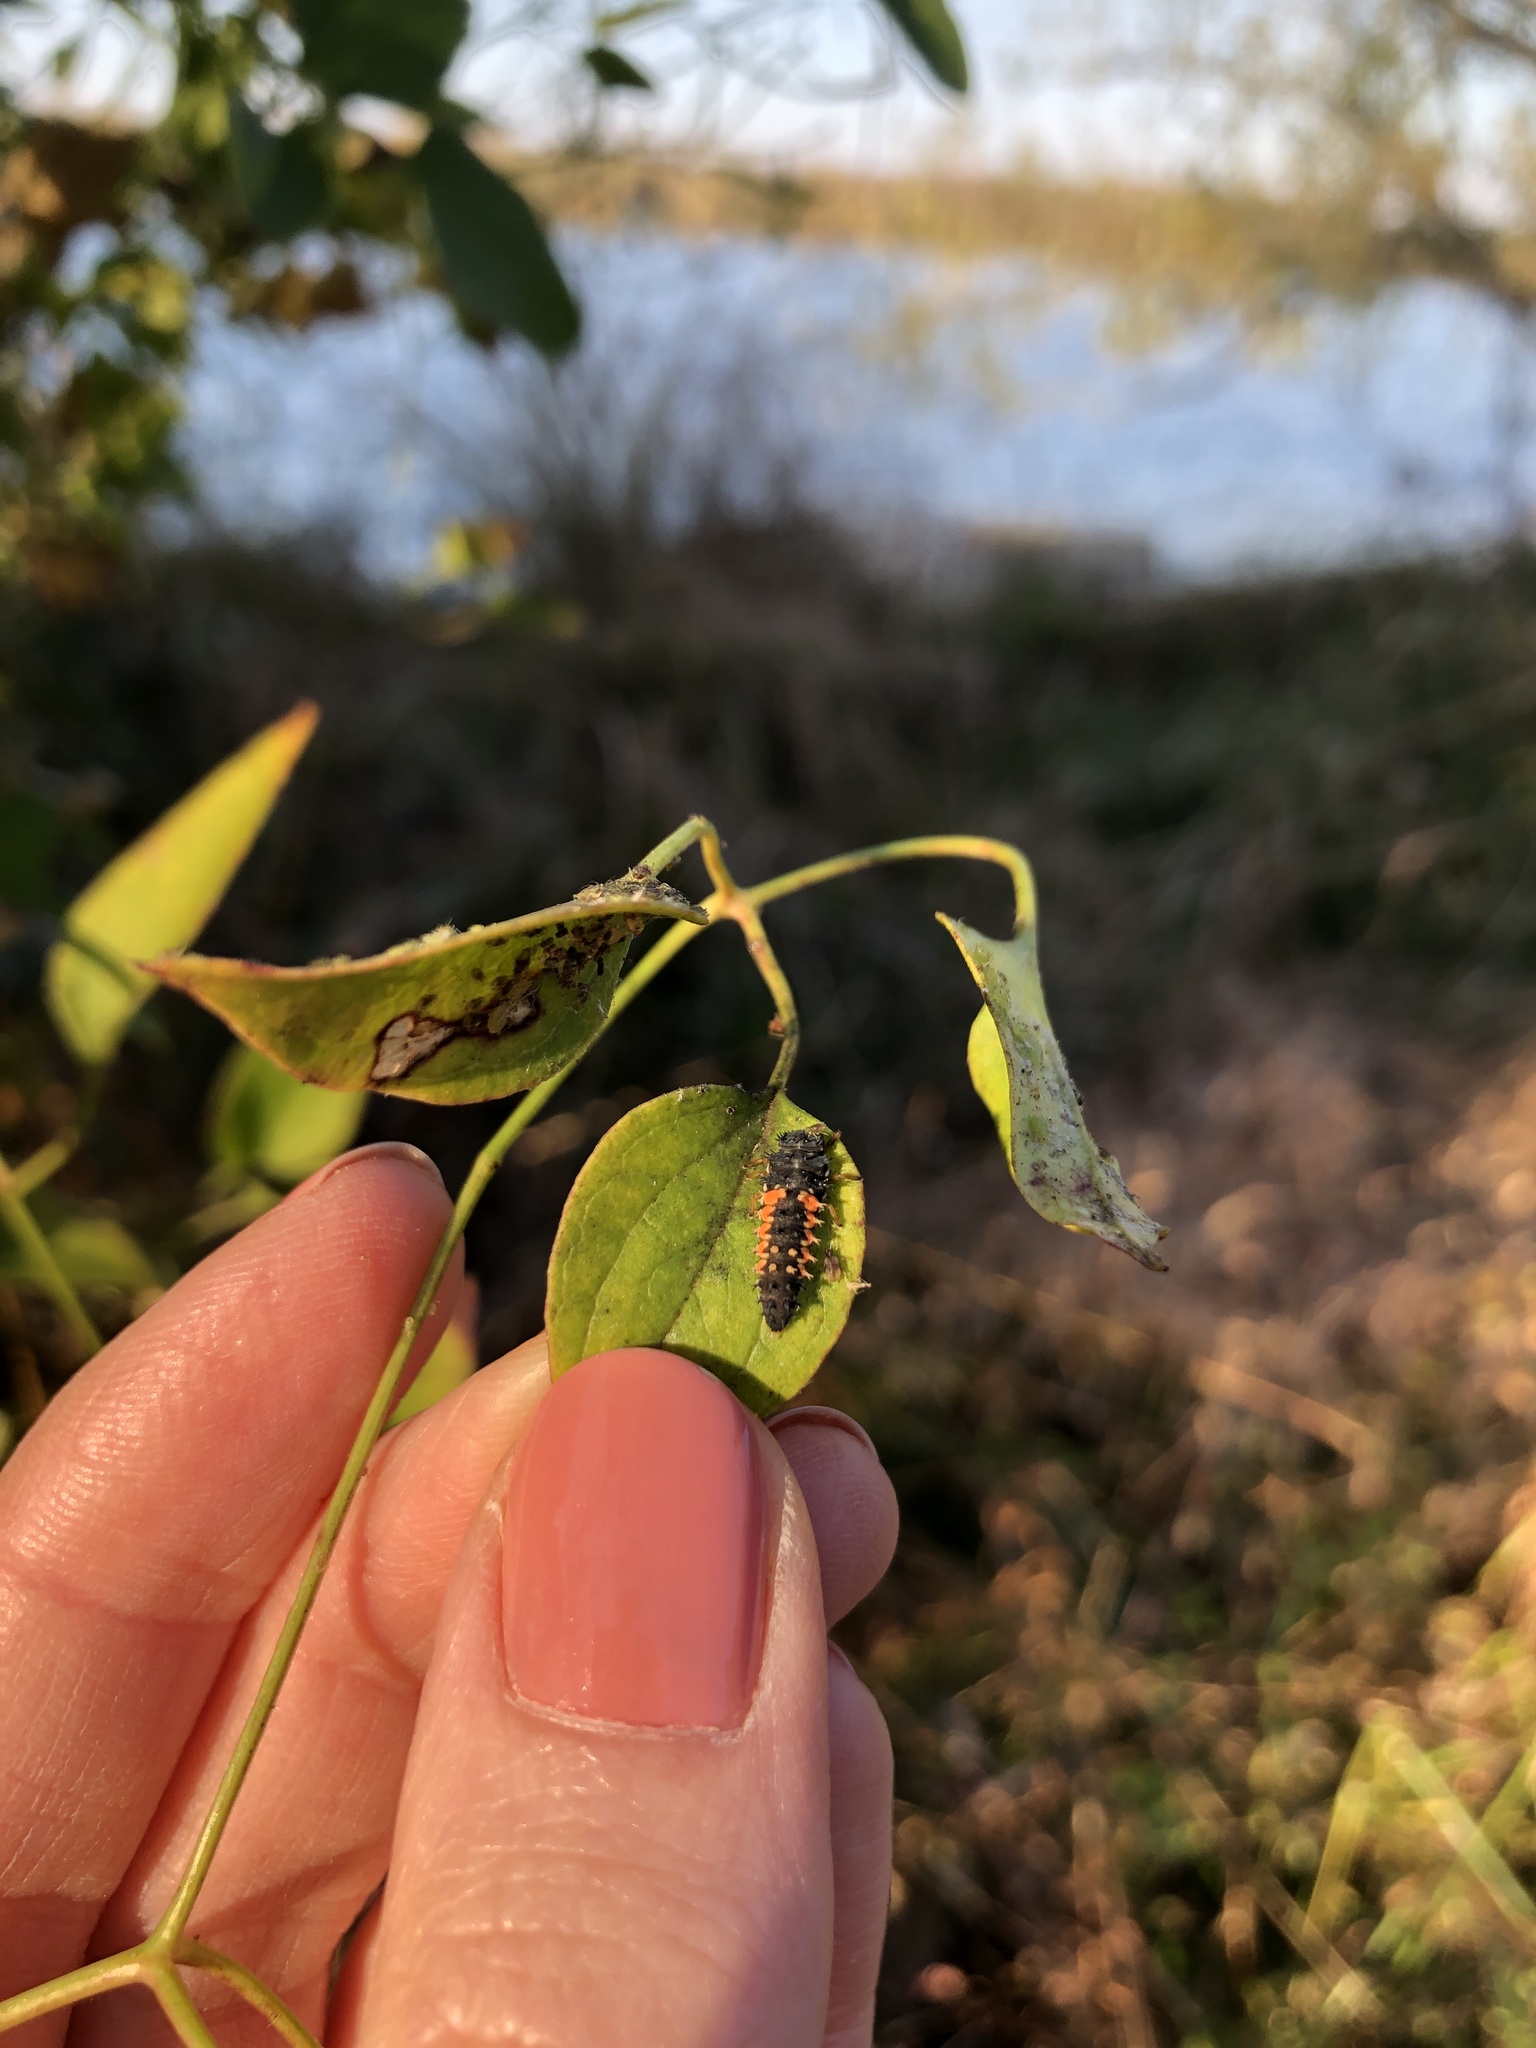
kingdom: Animalia
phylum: Arthropoda
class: Insecta
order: Coleoptera
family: Coccinellidae
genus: Harmonia
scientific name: Harmonia axyridis
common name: Harlequin ladybird
